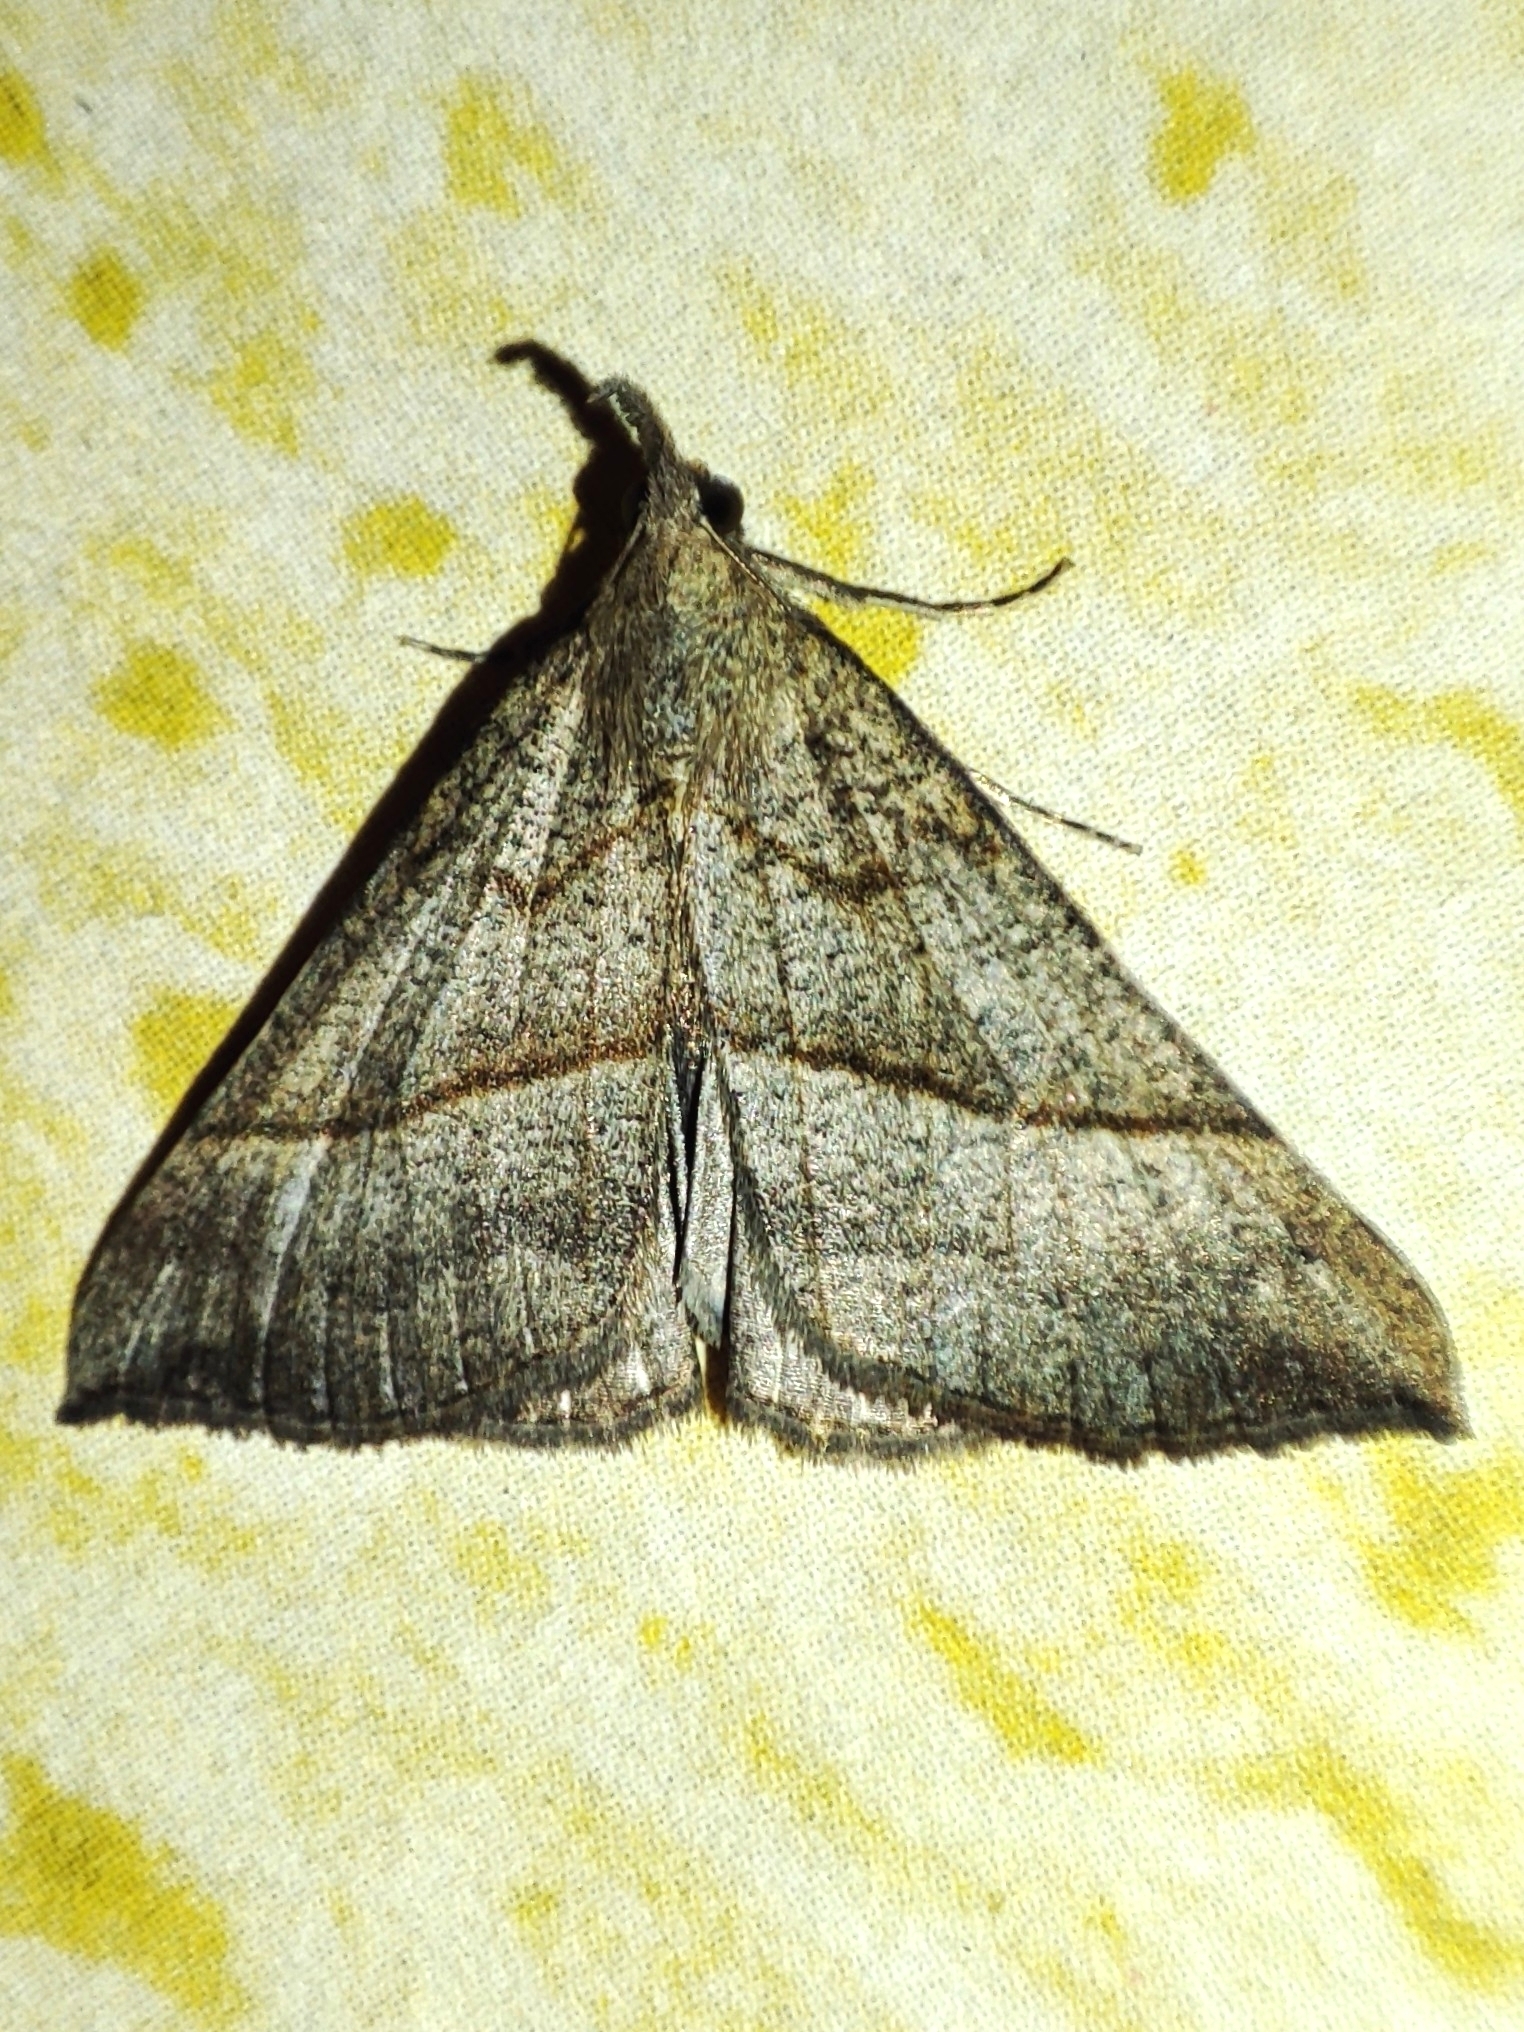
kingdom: Animalia
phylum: Arthropoda
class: Insecta
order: Lepidoptera
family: Erebidae
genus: Hypena
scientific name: Hypena proboscidalis
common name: Snout
